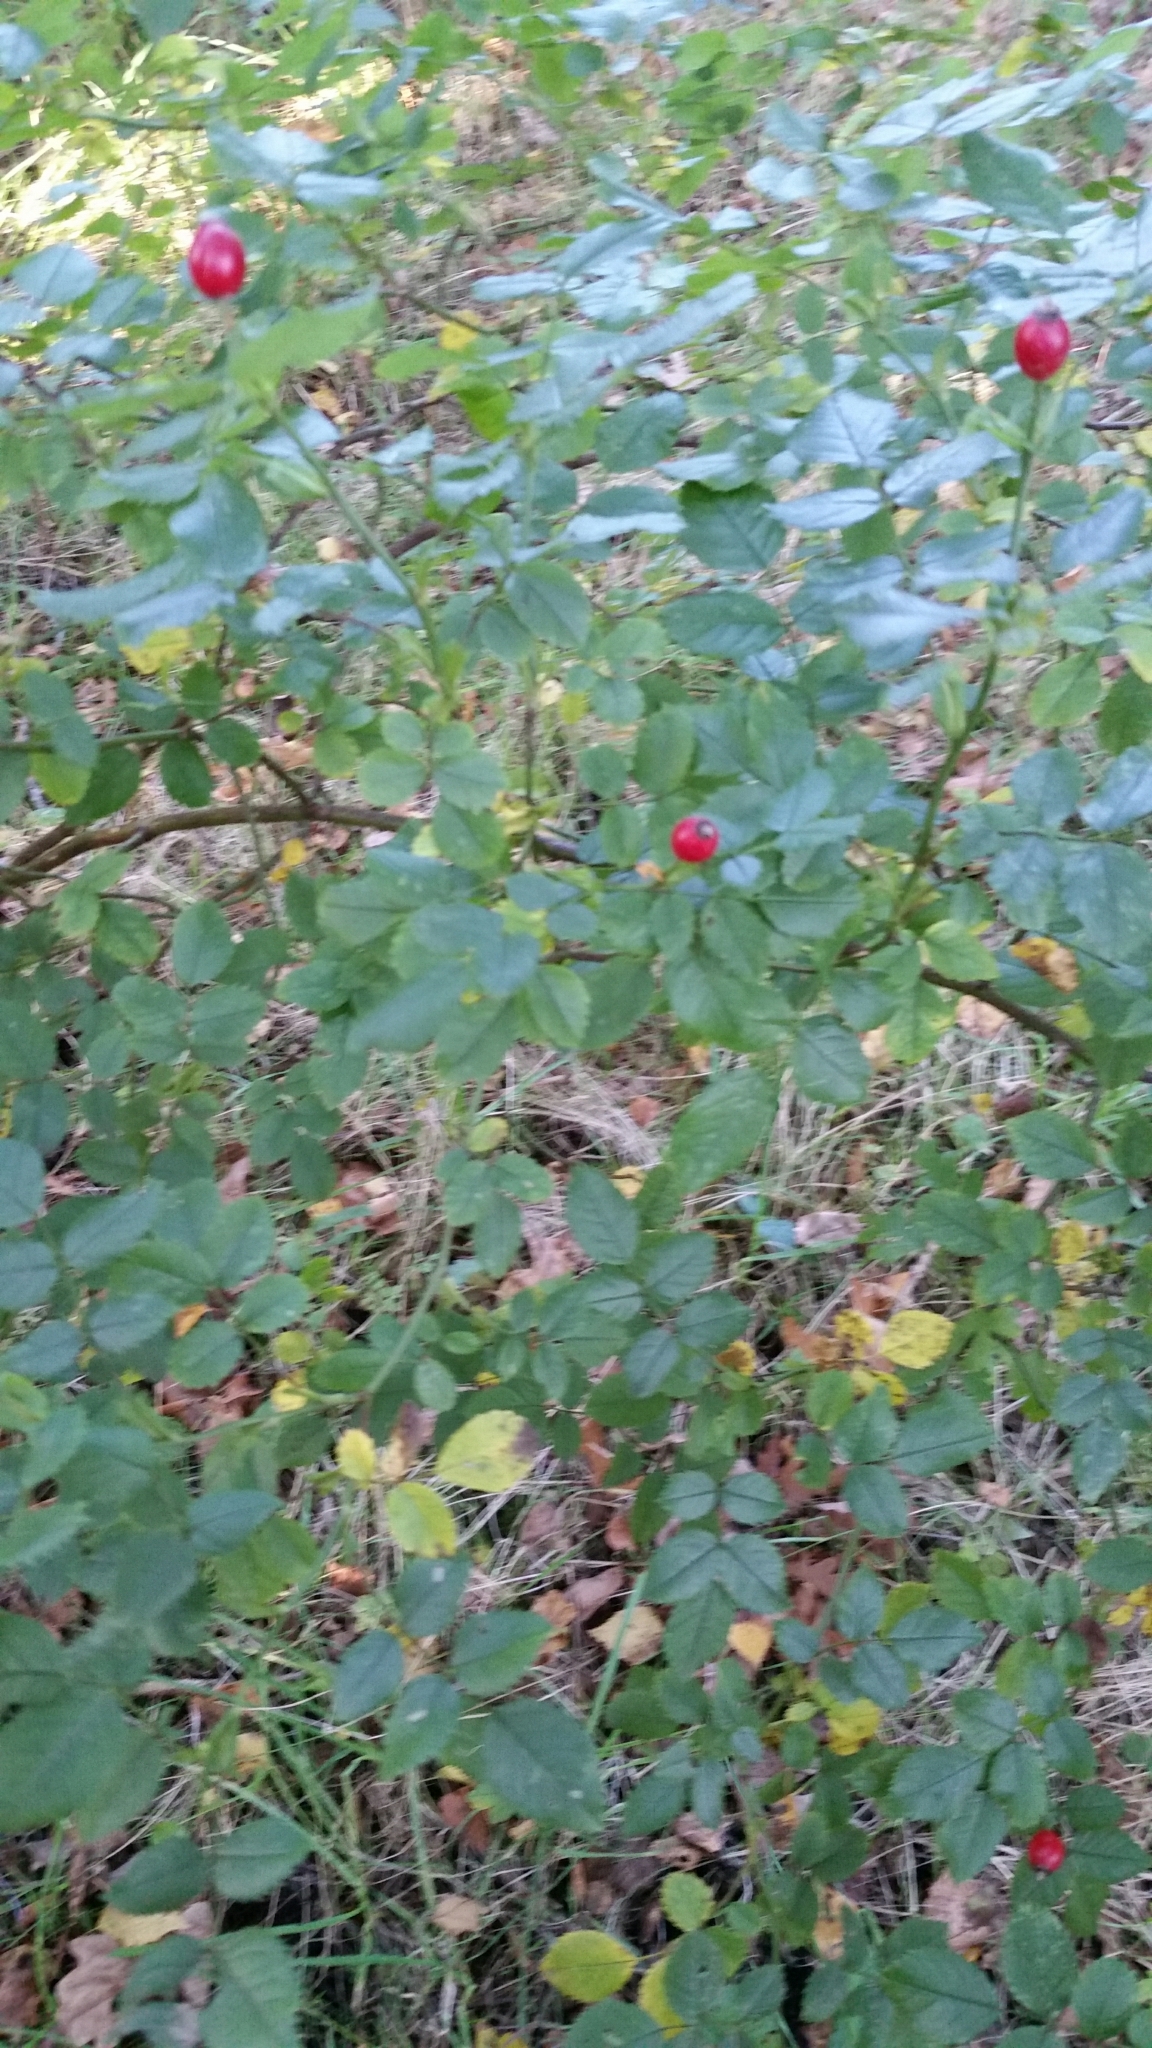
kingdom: Plantae
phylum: Tracheophyta
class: Magnoliopsida
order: Rosales
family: Rosaceae
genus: Rosa
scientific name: Rosa canina
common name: Dog rose
